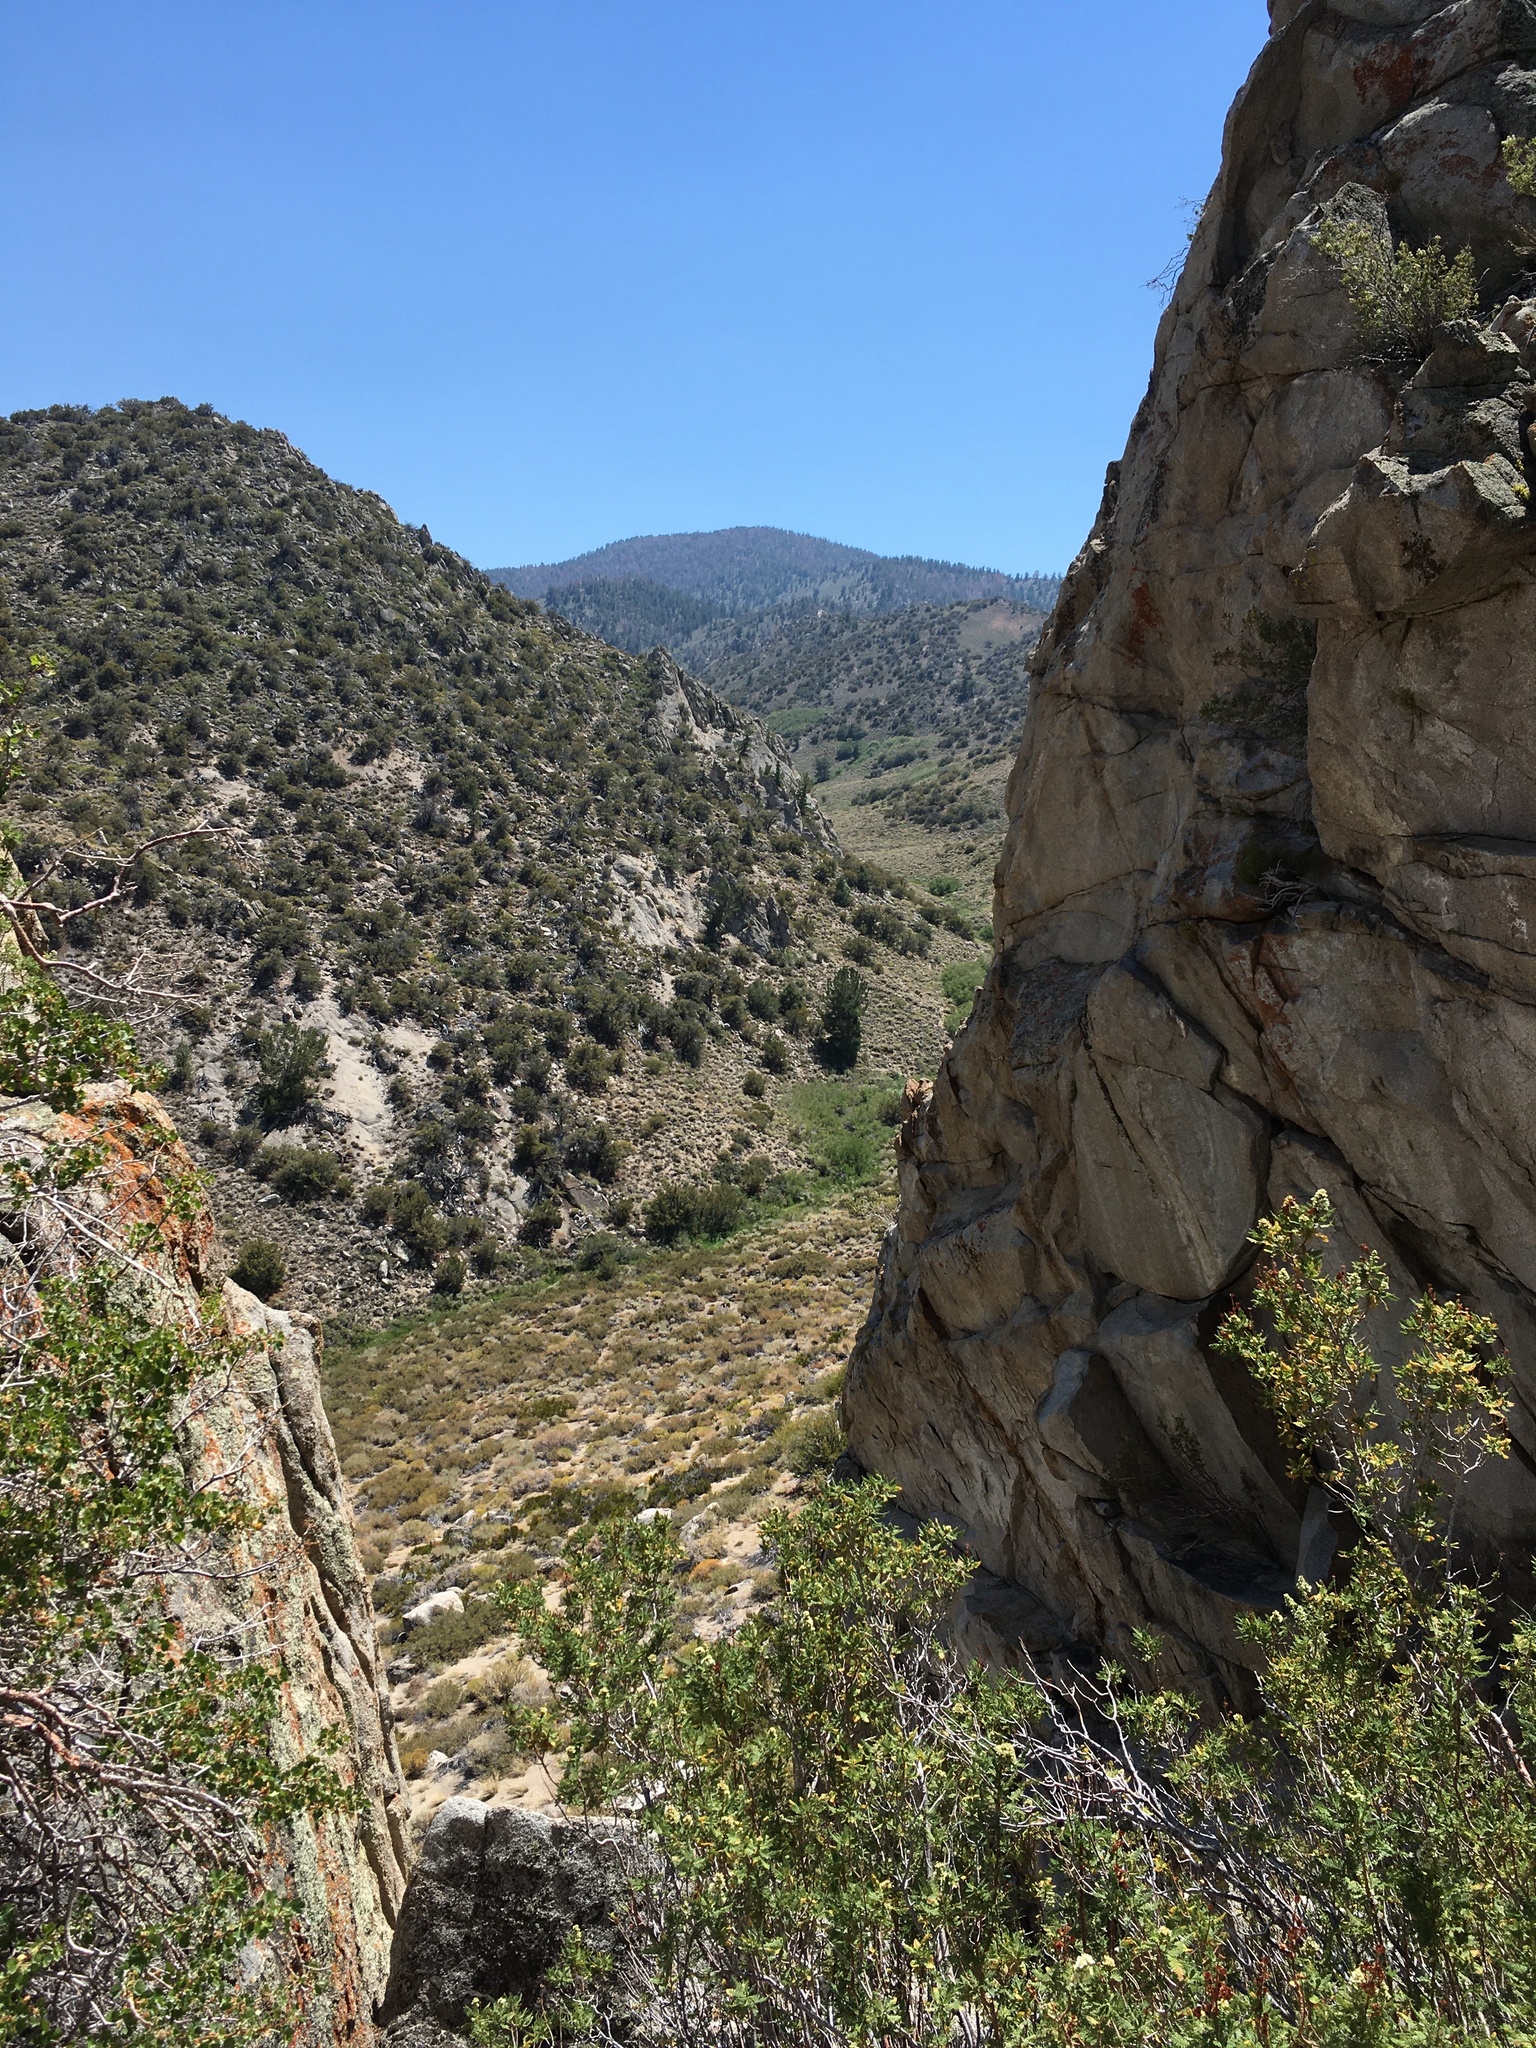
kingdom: Plantae
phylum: Tracheophyta
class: Magnoliopsida
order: Rosales
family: Rosaceae
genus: Chamaebatiaria
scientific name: Chamaebatiaria millefolium
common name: Fernbush
